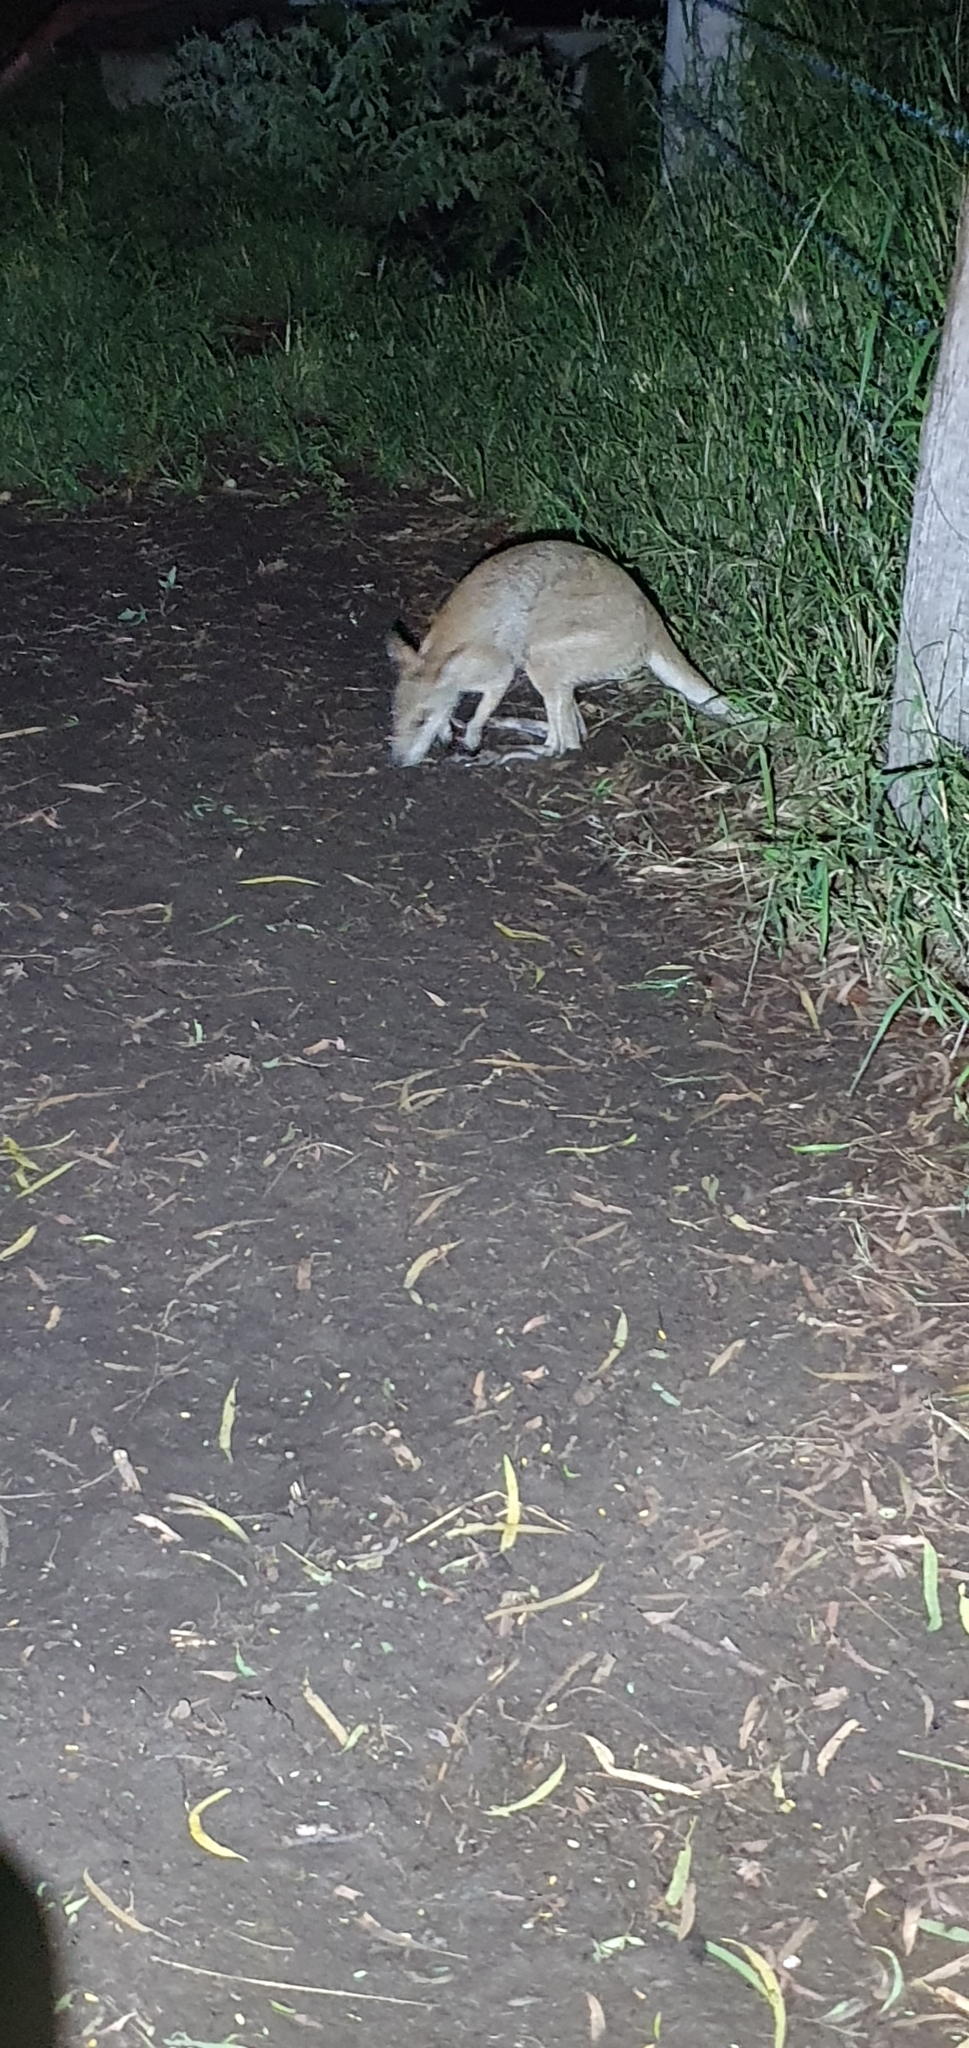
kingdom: Animalia
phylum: Chordata
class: Mammalia
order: Diprotodontia
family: Macropodidae
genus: Macropus
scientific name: Macropus agilis
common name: Agile wallaby
